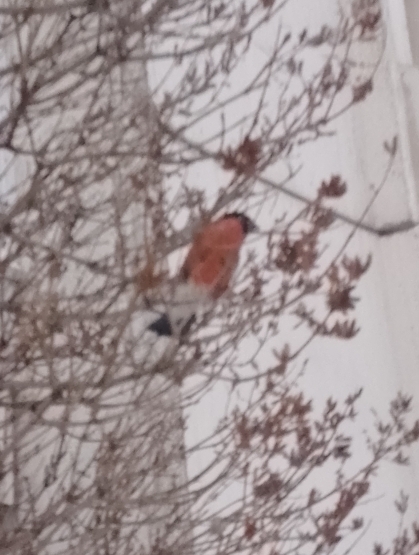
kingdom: Animalia
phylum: Chordata
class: Aves
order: Passeriformes
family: Fringillidae
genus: Pyrrhula
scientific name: Pyrrhula pyrrhula
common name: Eurasian bullfinch
